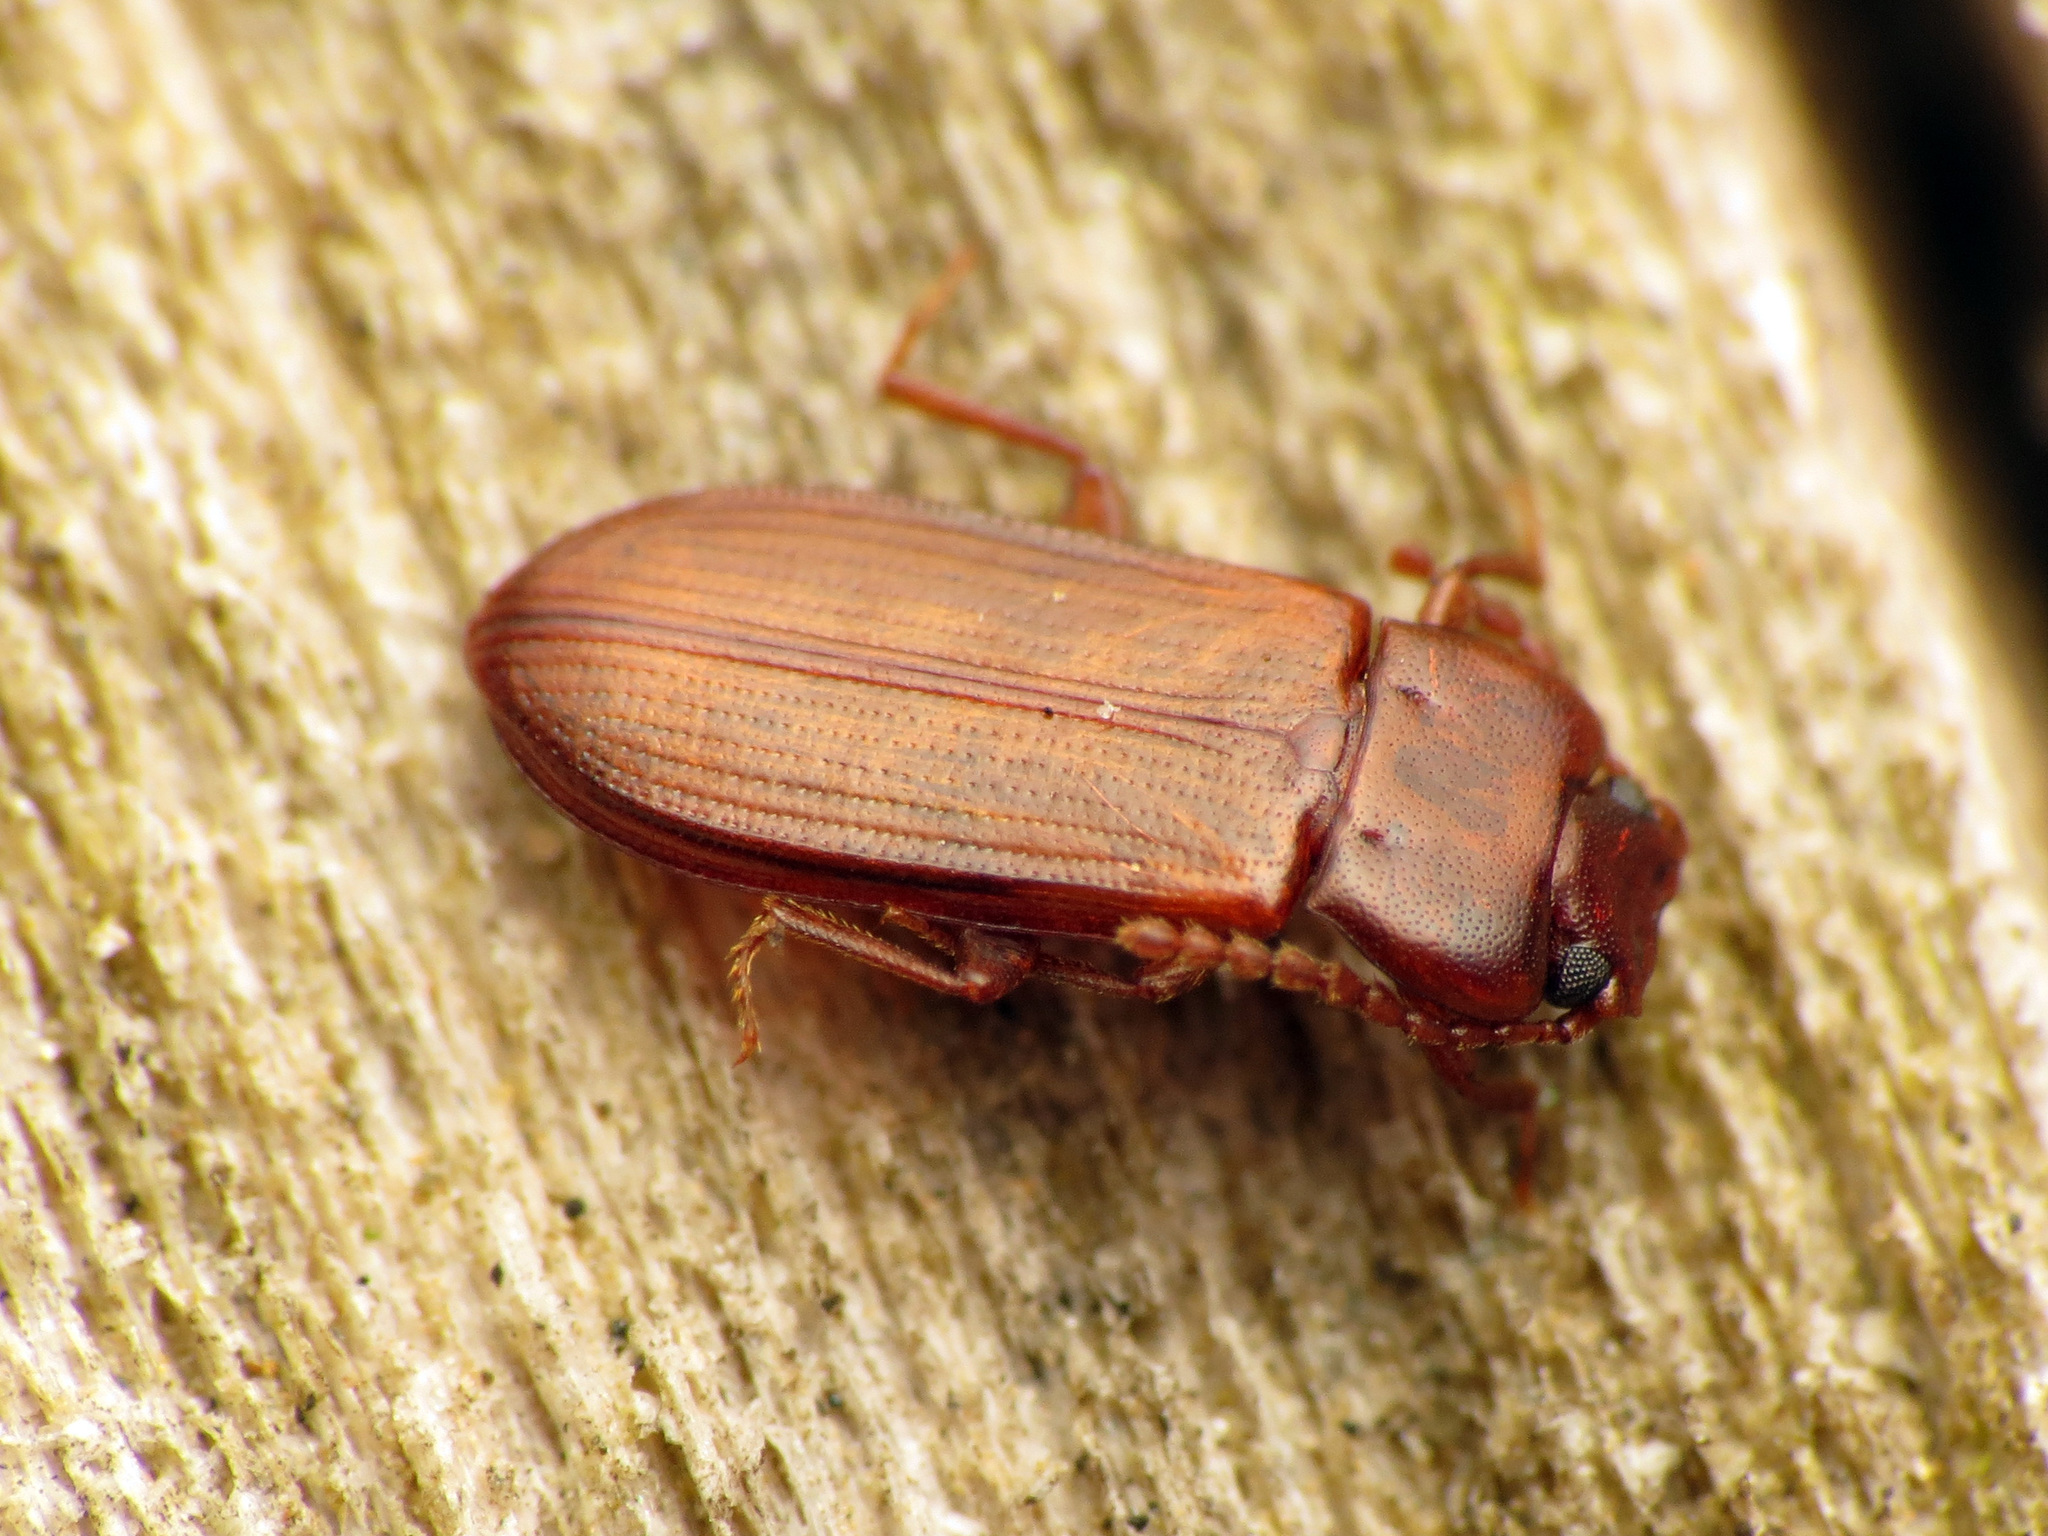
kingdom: Animalia
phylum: Arthropoda
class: Insecta
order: Coleoptera
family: Tenebrionidae
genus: Adelina
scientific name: Adelina pallida
